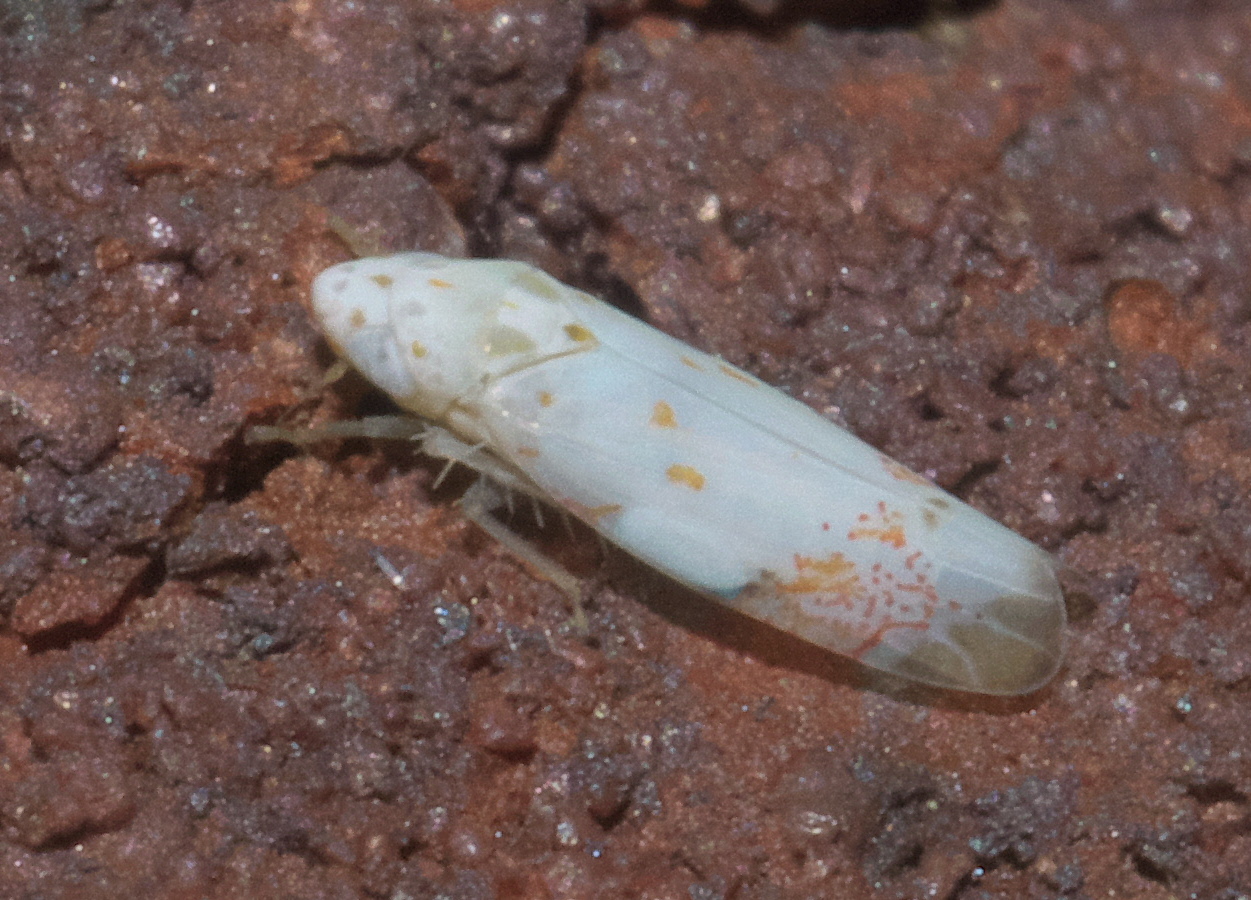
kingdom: Animalia
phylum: Arthropoda
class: Insecta
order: Hemiptera
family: Cicadellidae
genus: Eratoneura
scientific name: Eratoneura stephensoni
